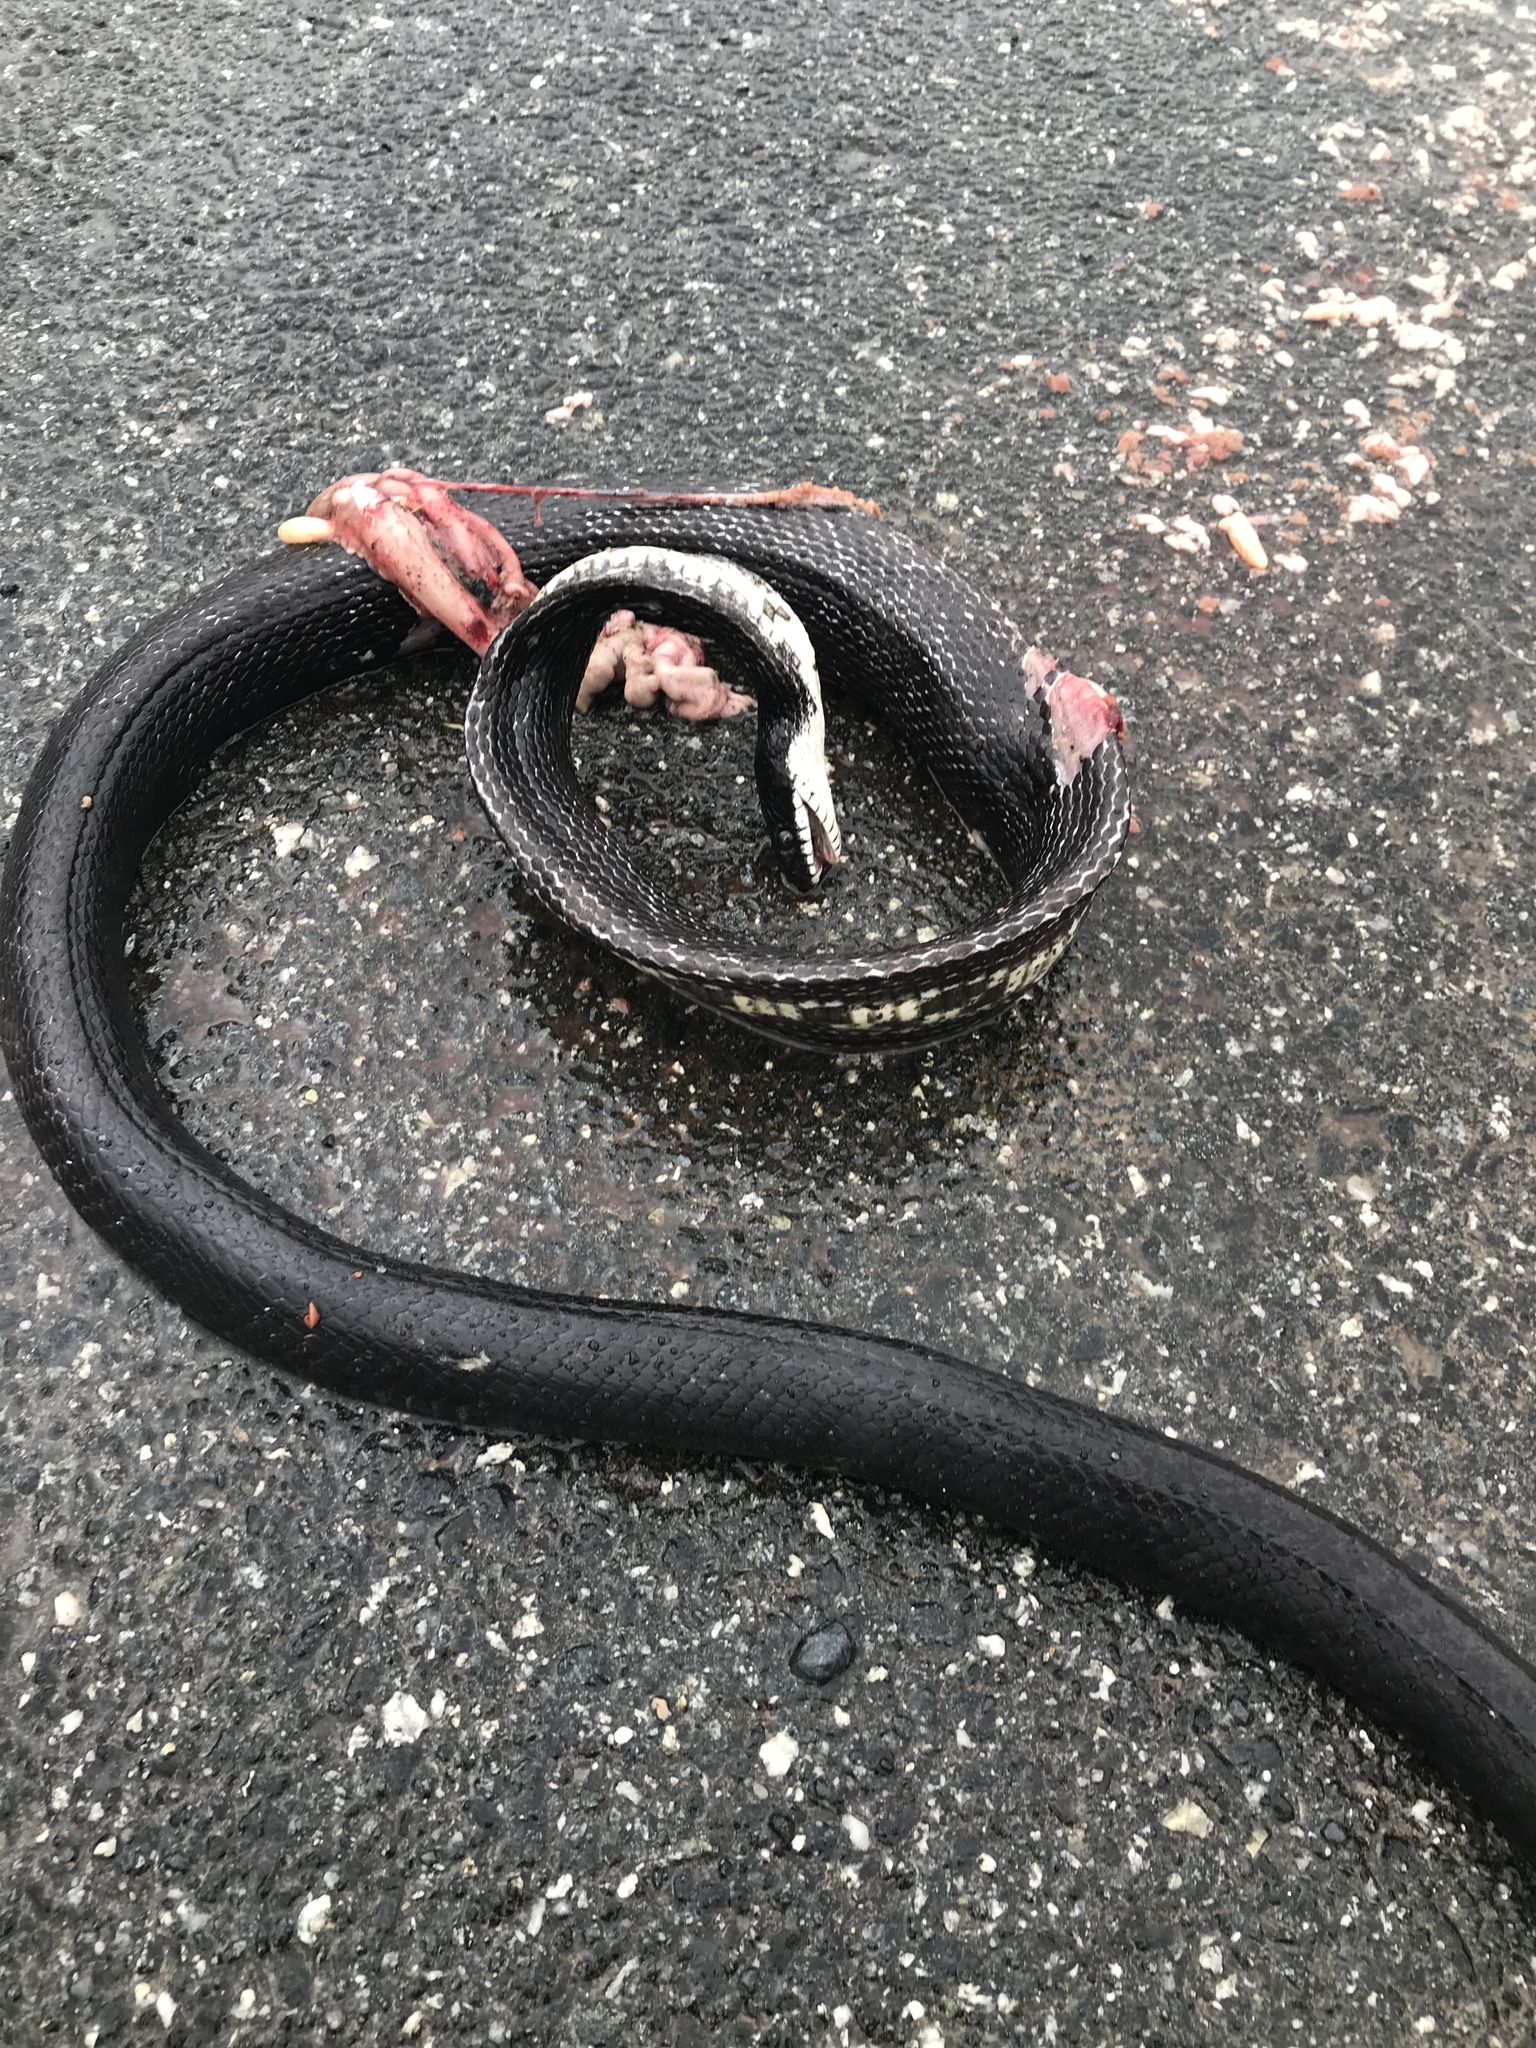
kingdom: Animalia
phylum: Chordata
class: Squamata
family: Colubridae
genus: Pantherophis
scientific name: Pantherophis alleghaniensis
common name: Eastern rat snake
